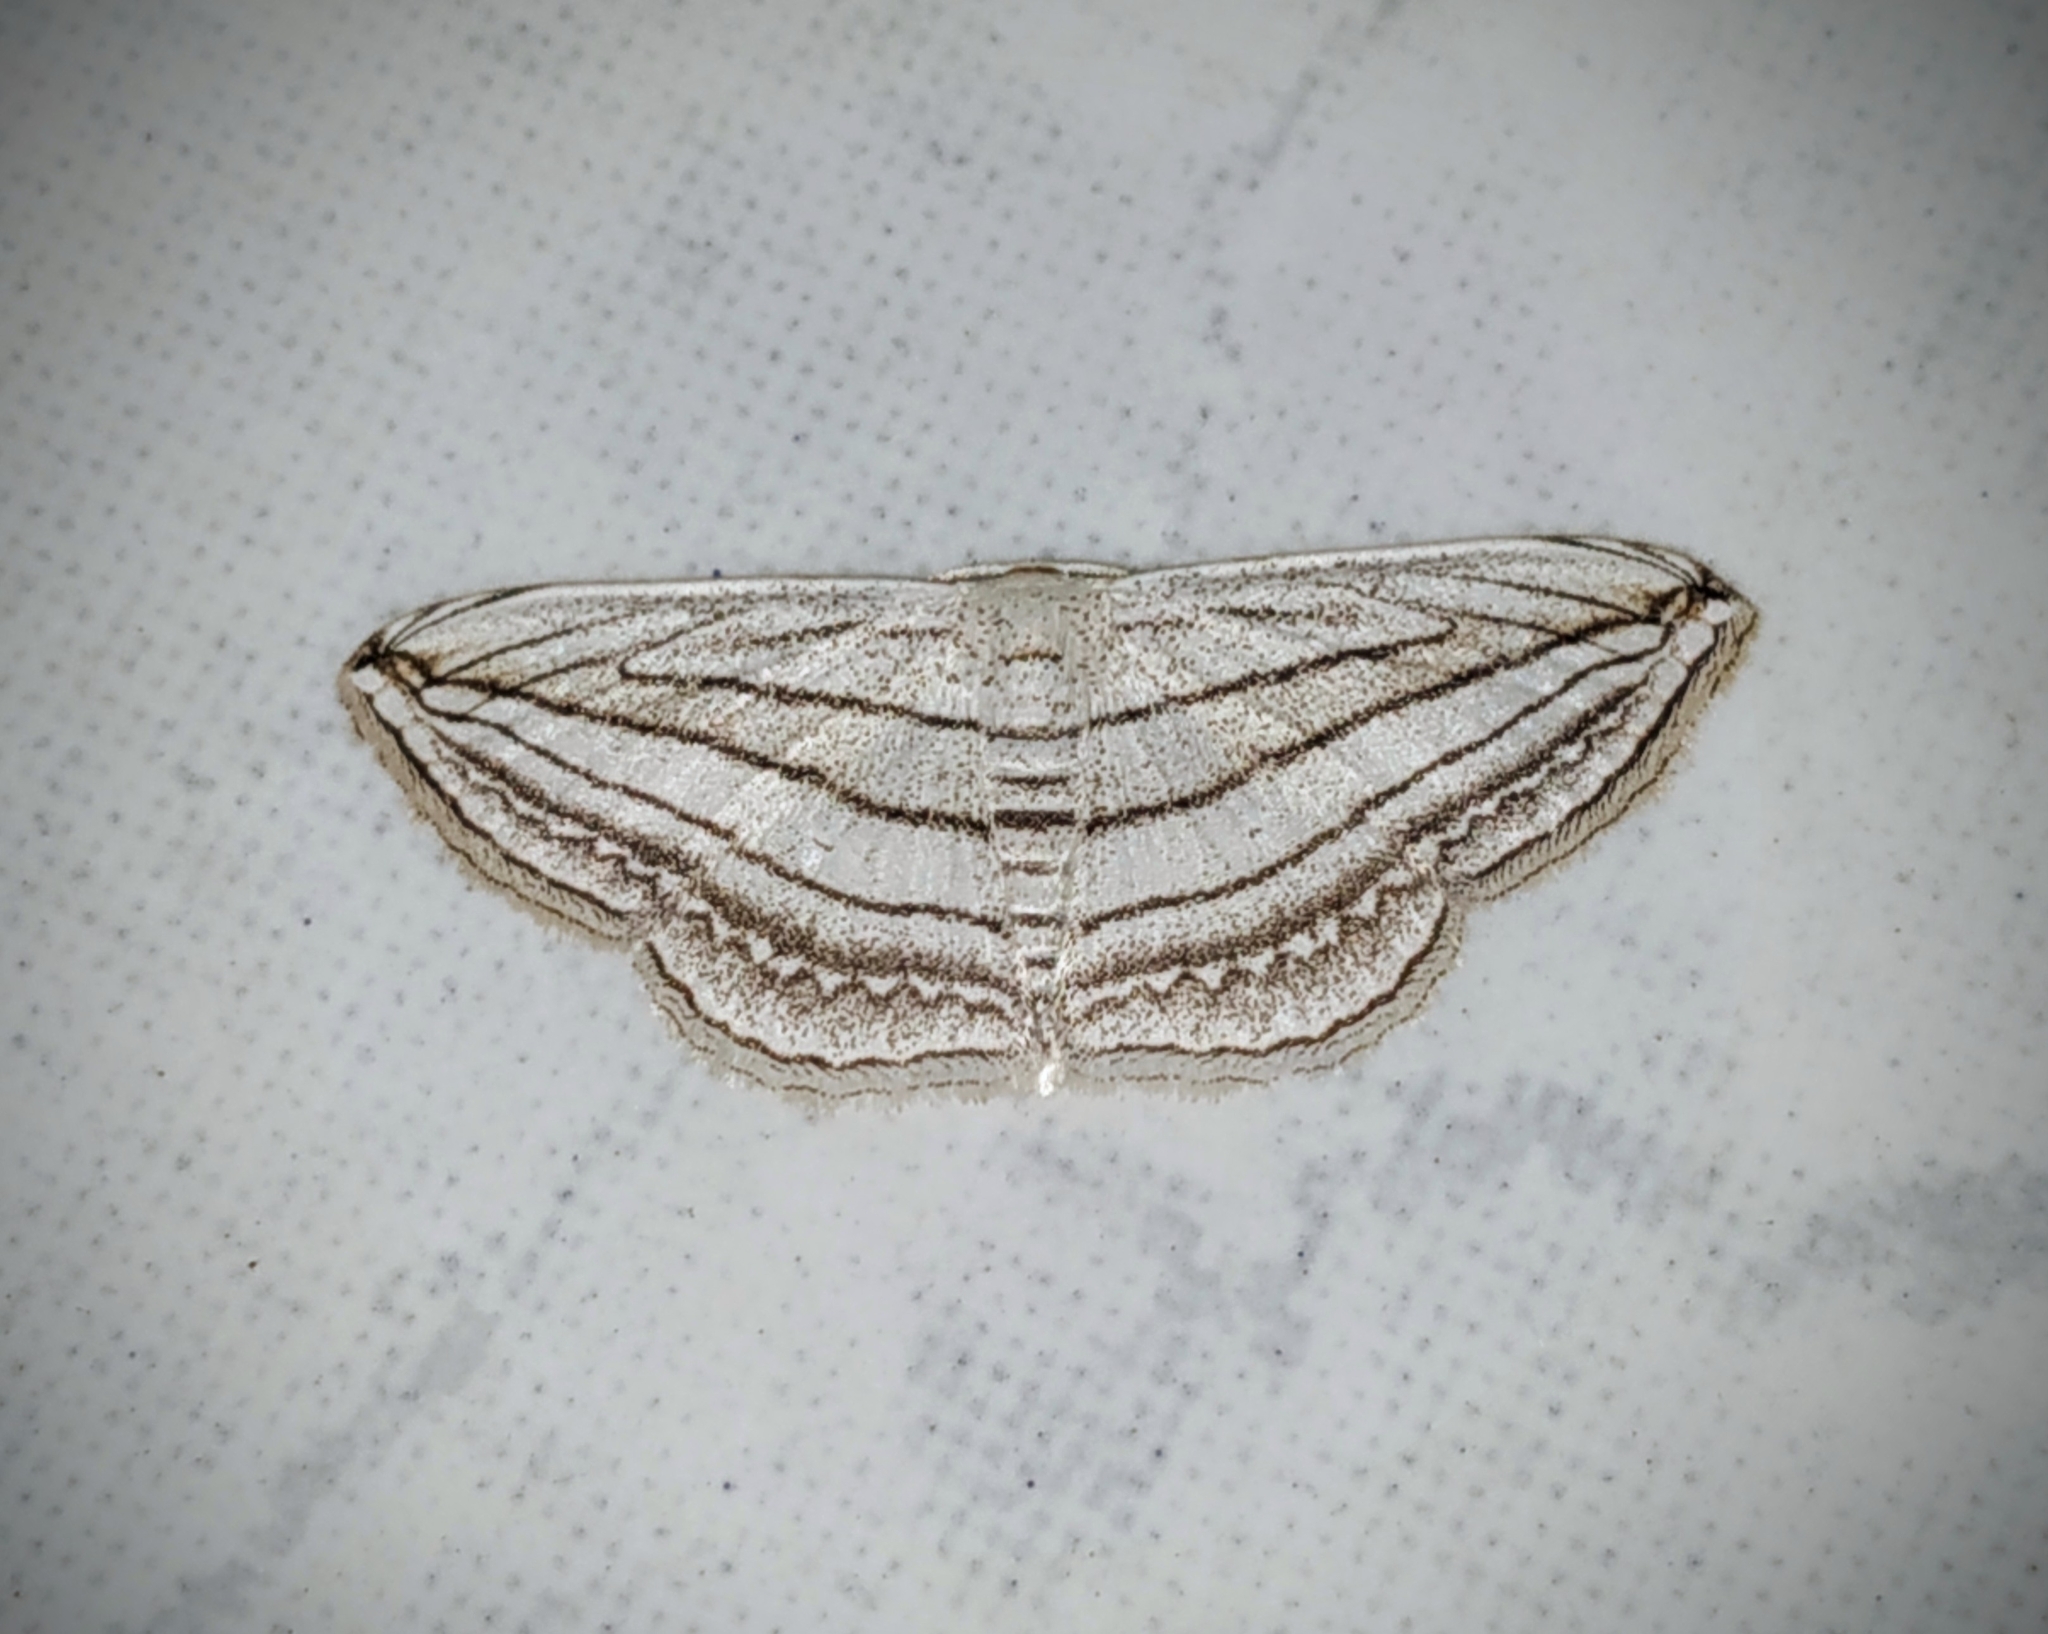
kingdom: Animalia
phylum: Arthropoda
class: Insecta
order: Lepidoptera
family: Geometridae
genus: Scopula
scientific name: Scopula opicata
